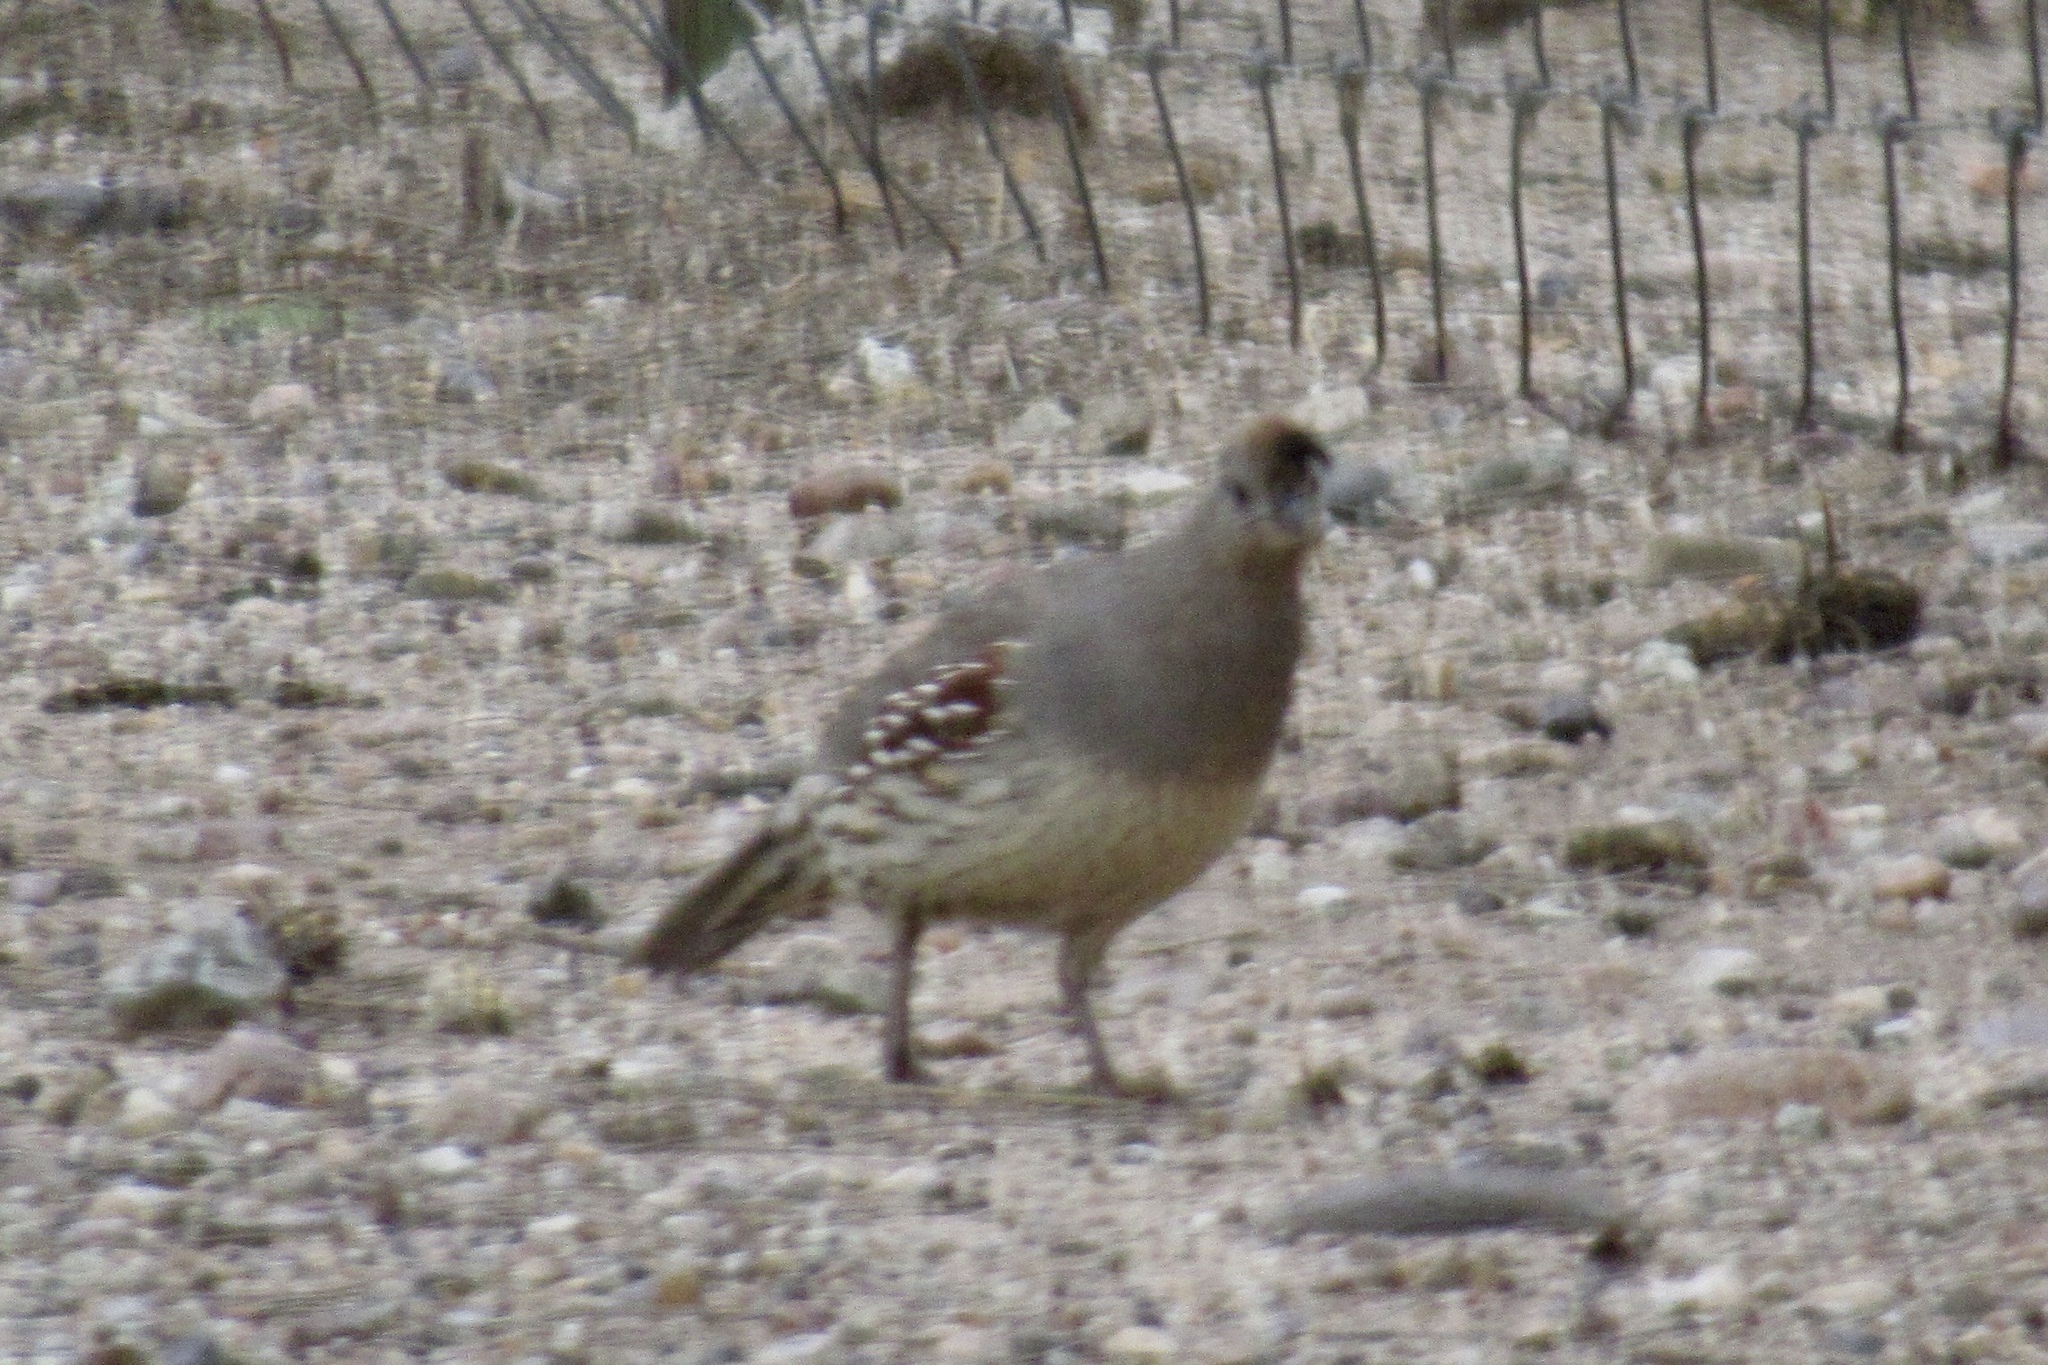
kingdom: Animalia
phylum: Chordata
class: Aves
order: Galliformes
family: Odontophoridae
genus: Callipepla
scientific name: Callipepla gambelii
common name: Gambel's quail
